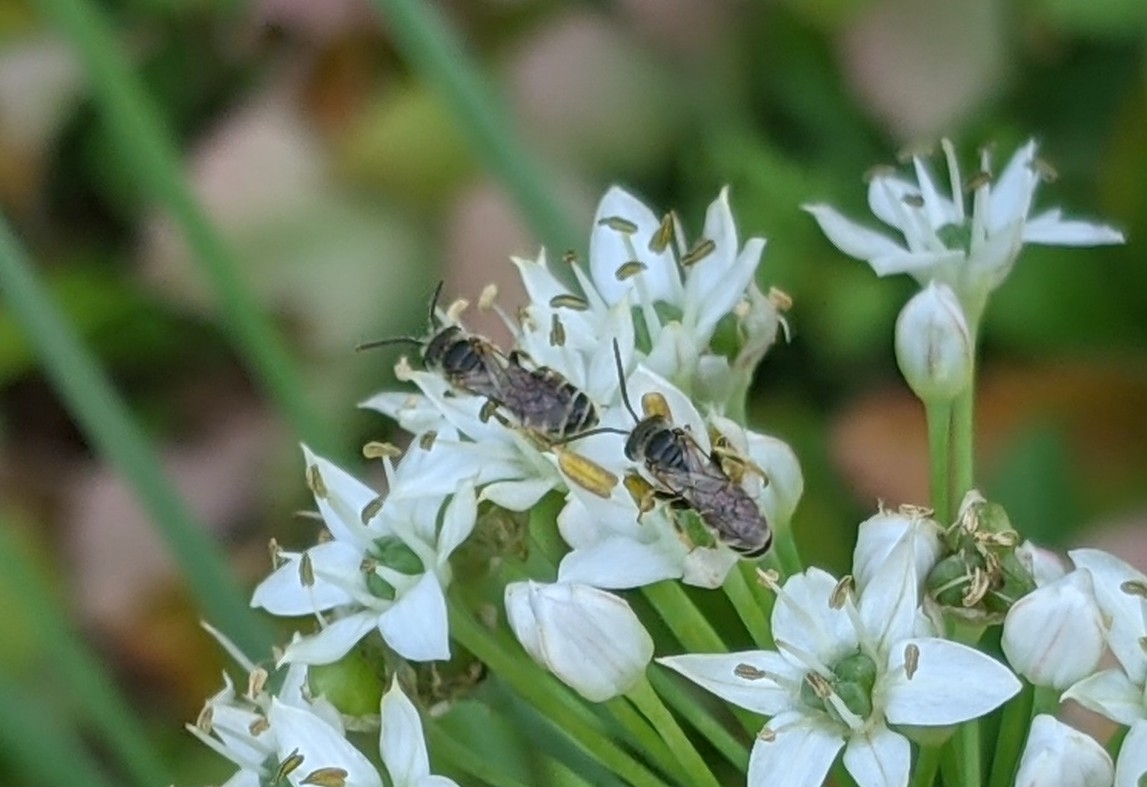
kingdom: Animalia
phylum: Arthropoda
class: Insecta
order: Hymenoptera
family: Halictidae
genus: Halictus
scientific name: Halictus ligatus
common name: Ligated furrow bee
